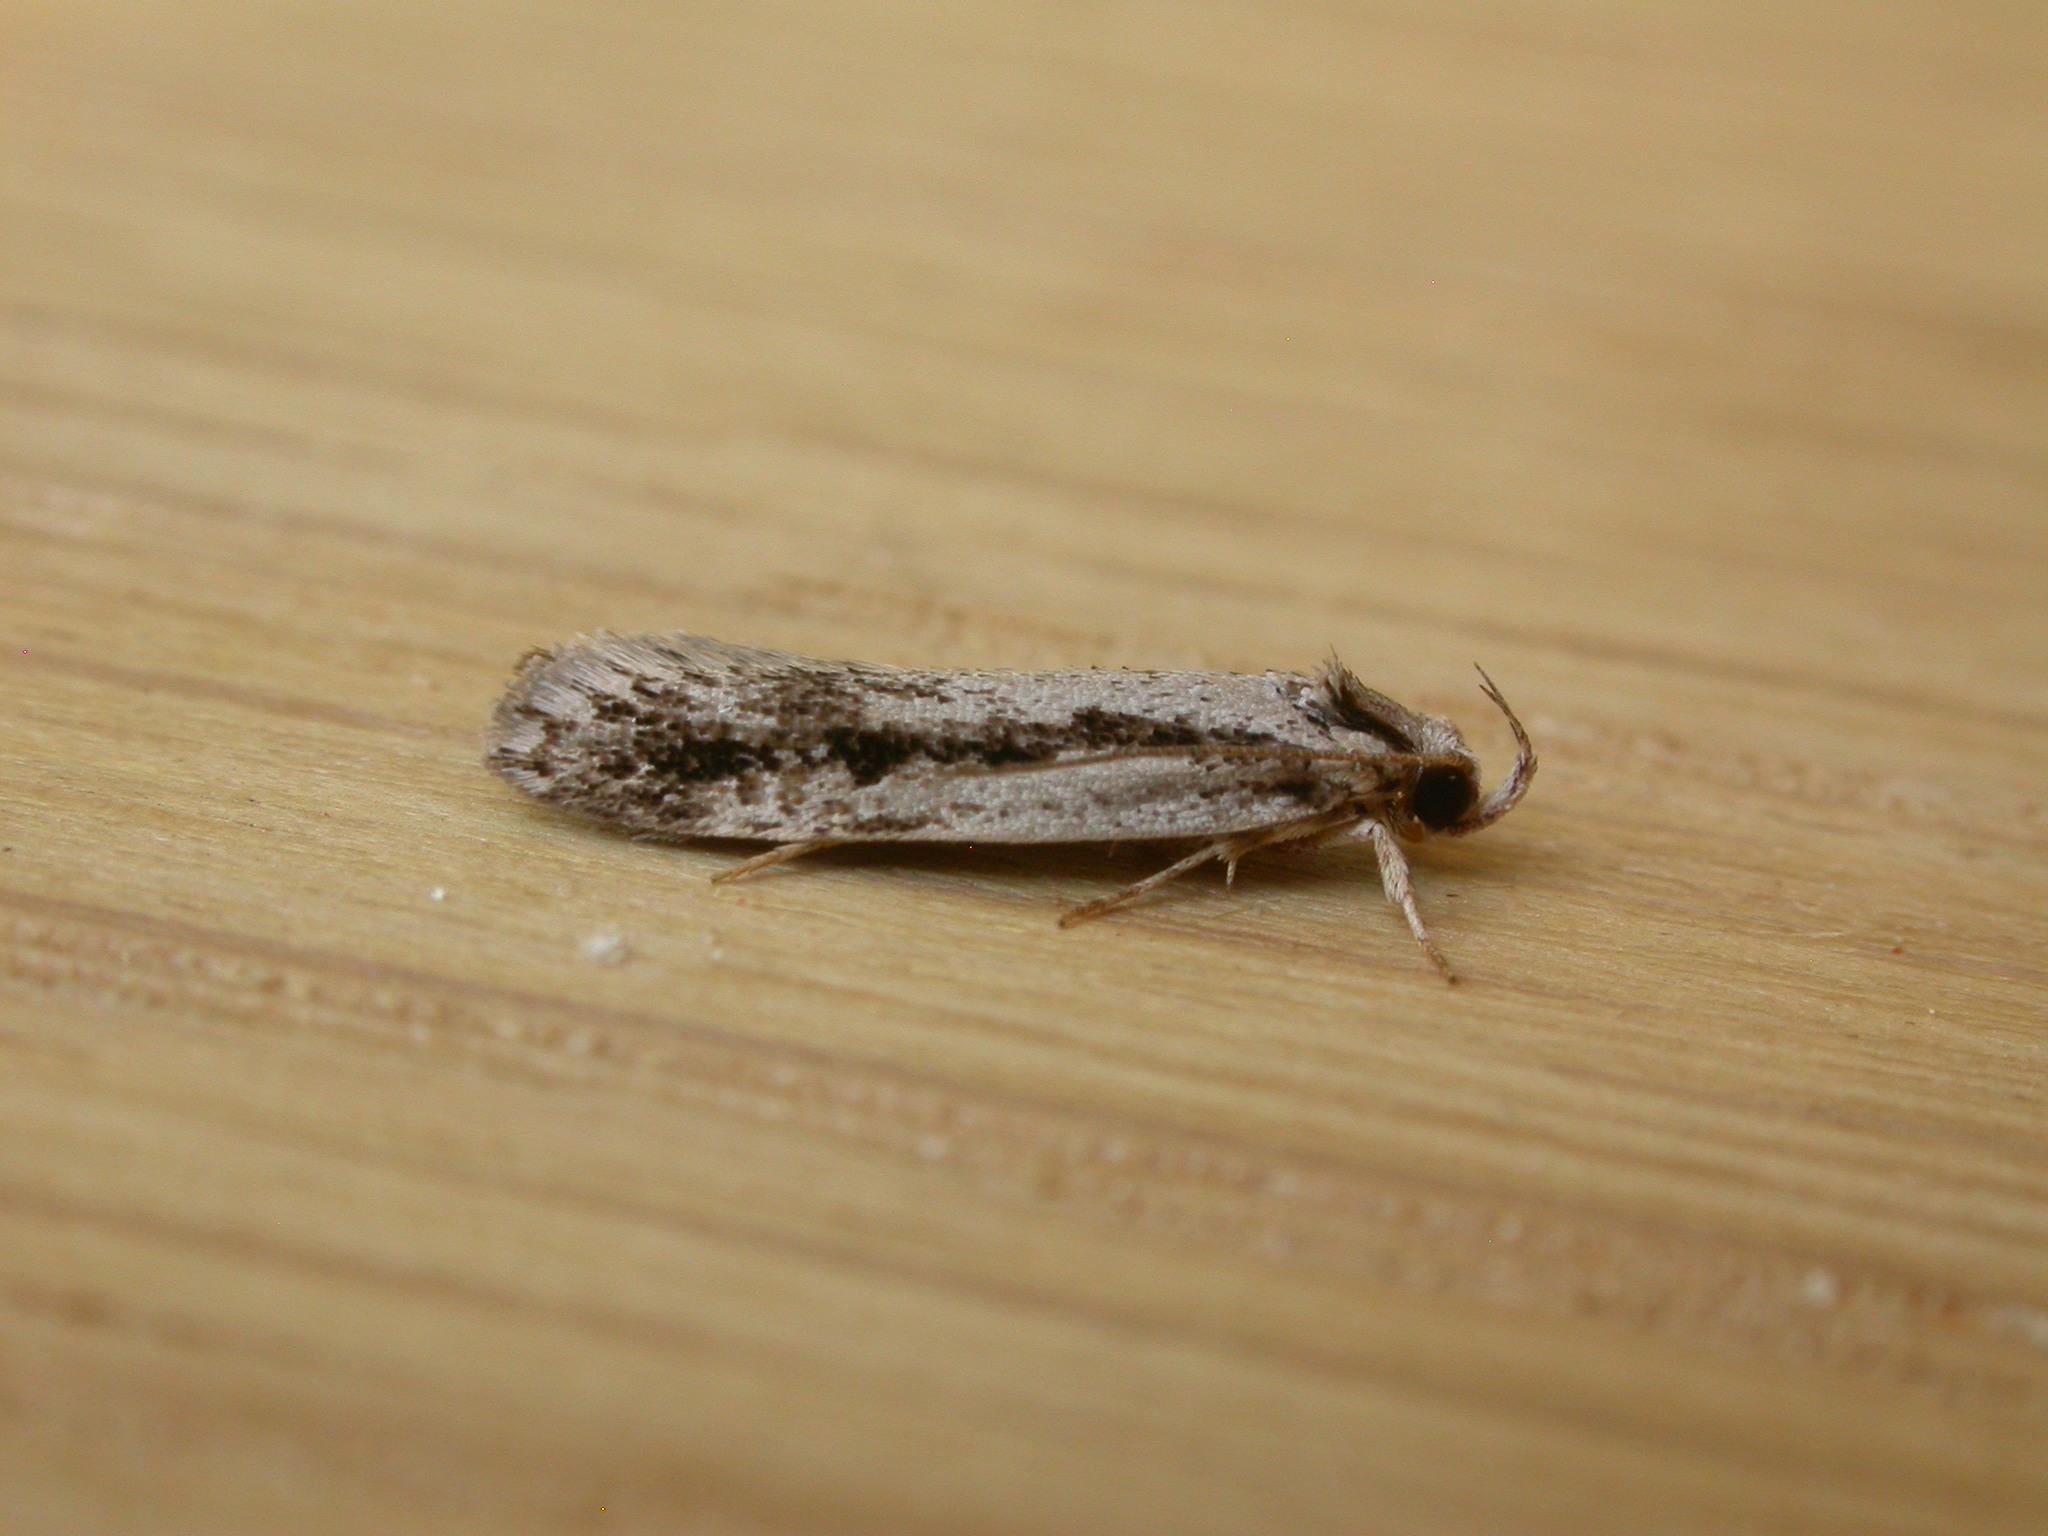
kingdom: Animalia
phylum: Arthropoda
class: Insecta
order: Lepidoptera
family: Oecophoridae
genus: Eulechria
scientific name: Eulechria xeropterella
